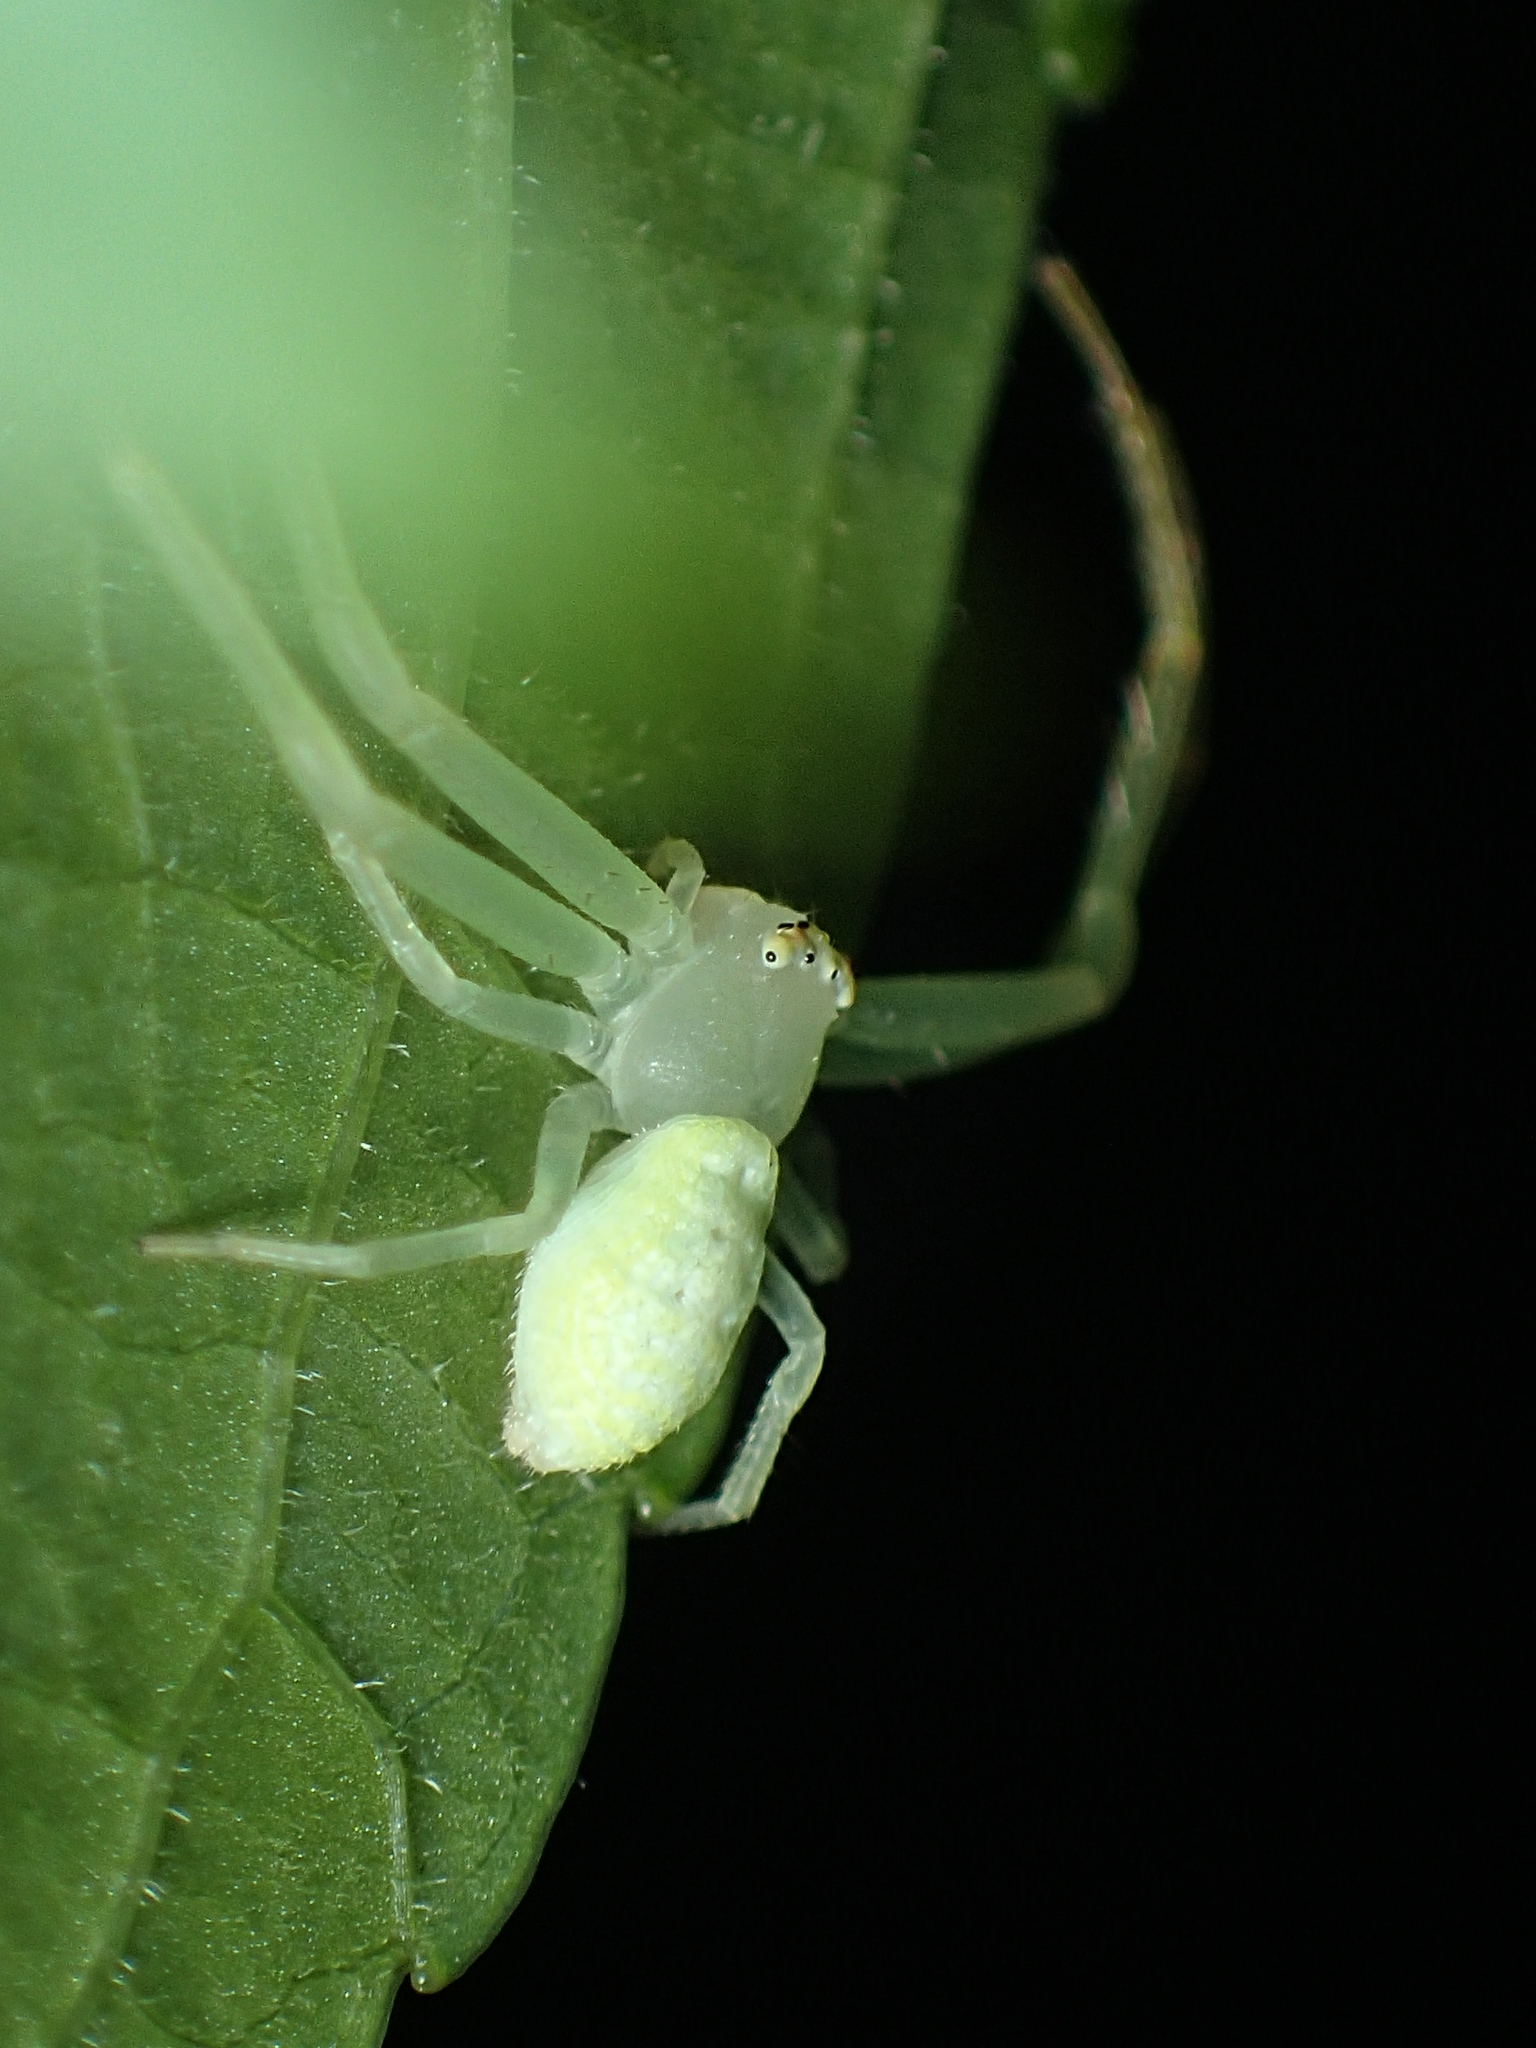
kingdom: Animalia
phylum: Arthropoda
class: Arachnida
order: Araneae
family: Thomisidae
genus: Misumessus
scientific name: Misumessus oblongus
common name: American green crab spider
